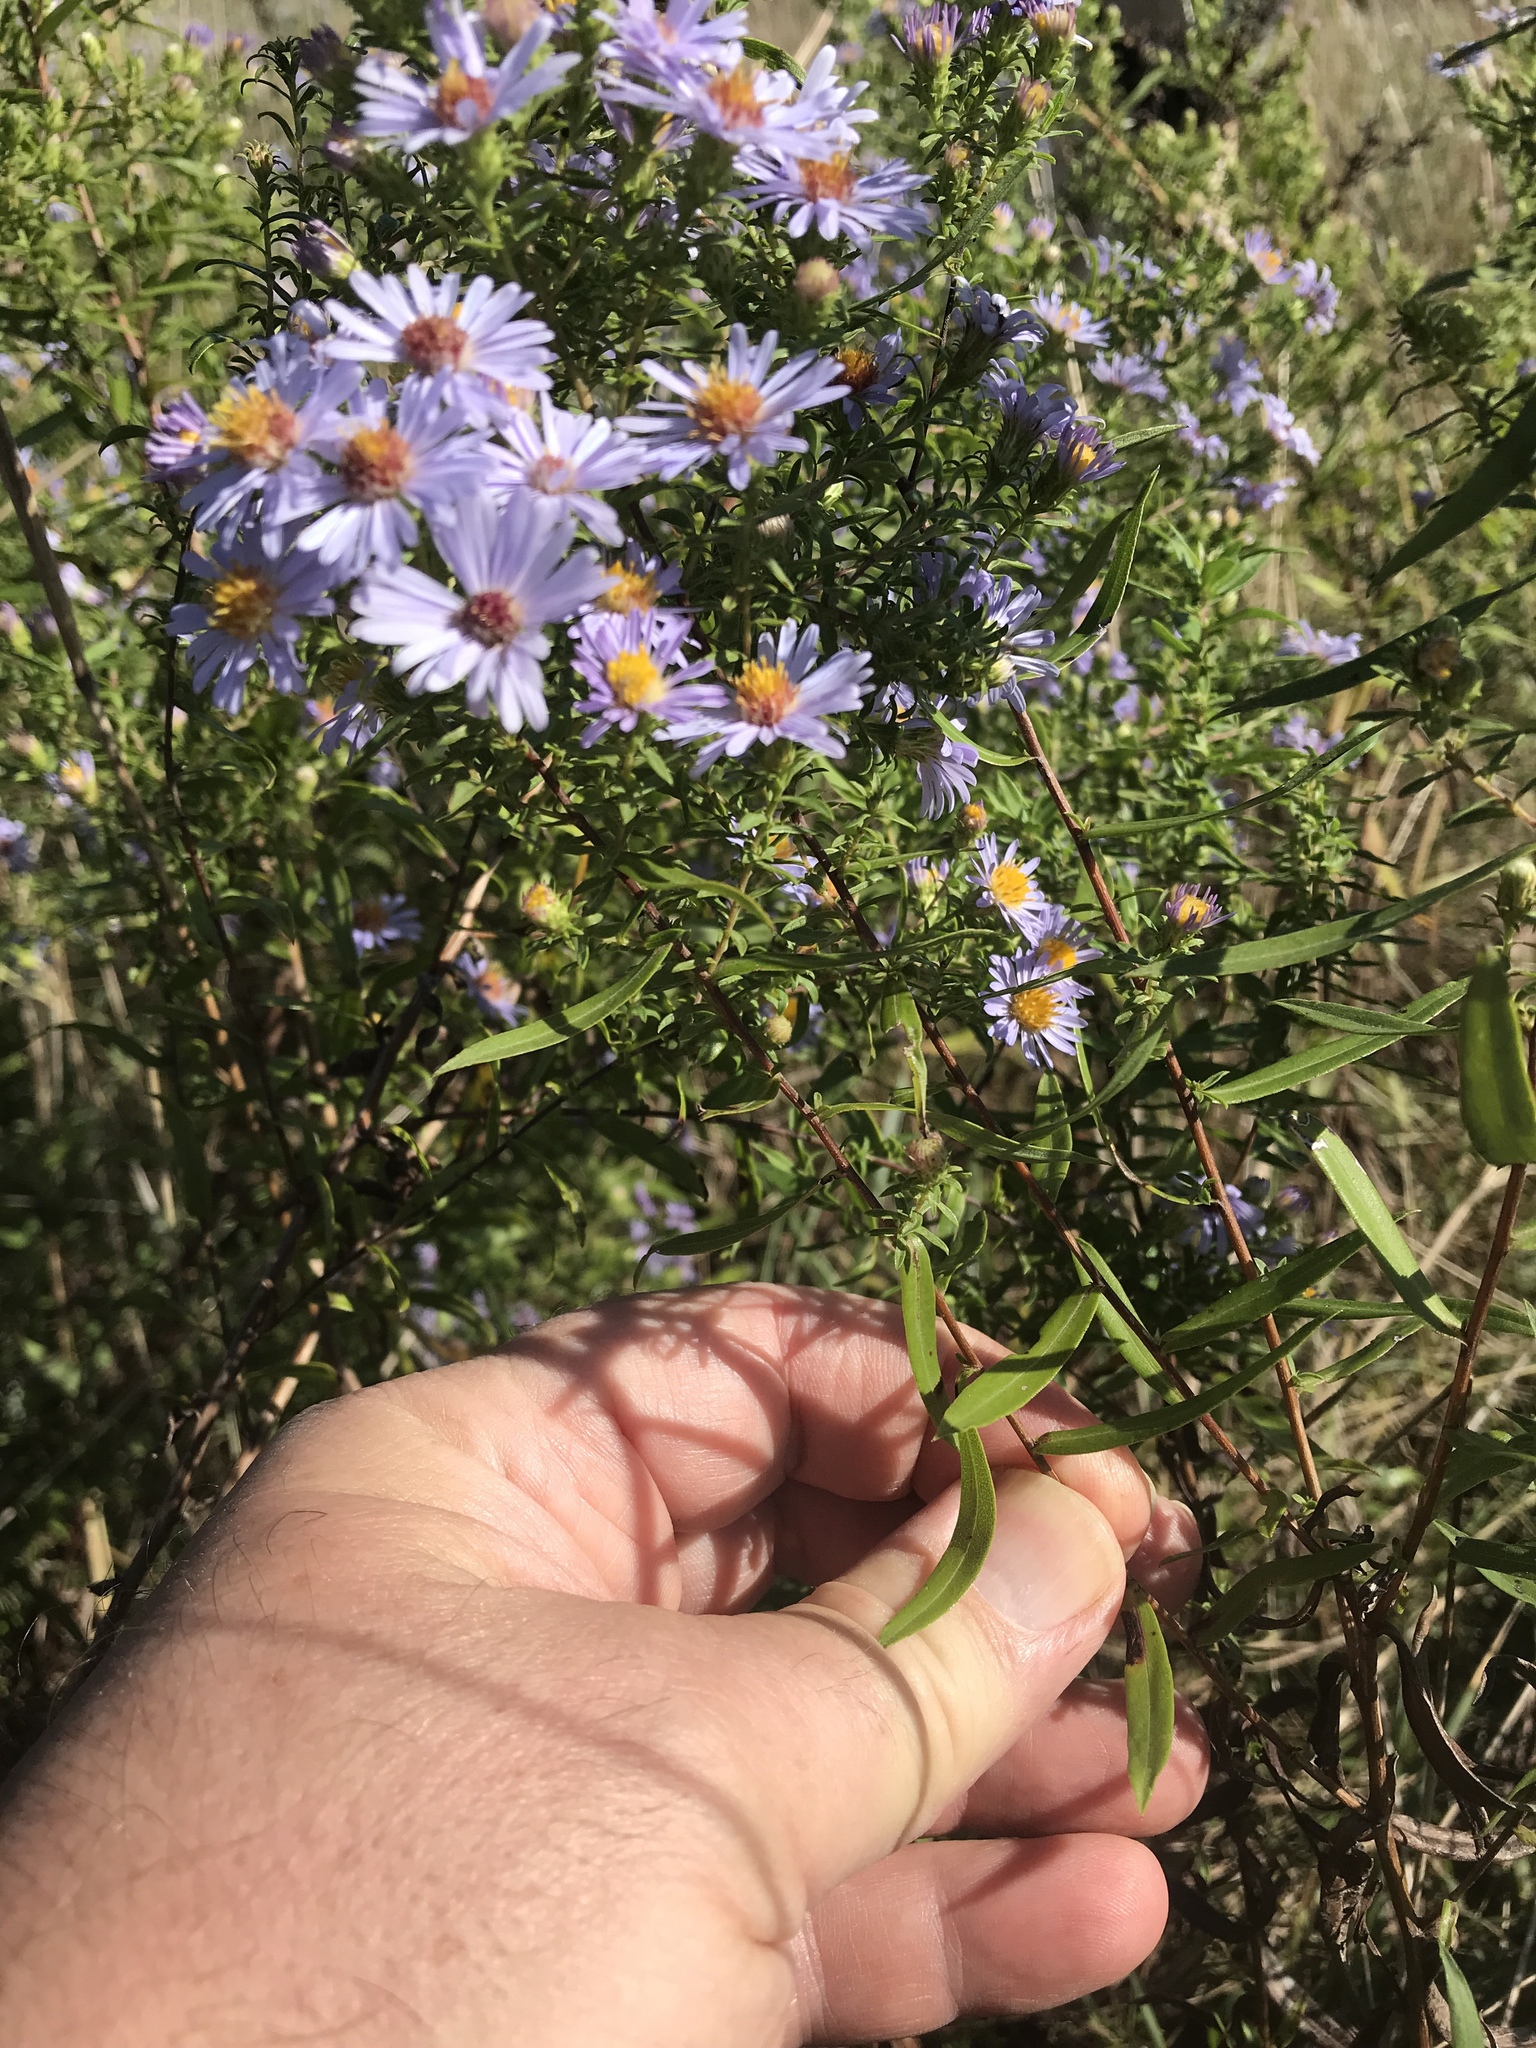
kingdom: Plantae
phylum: Tracheophyta
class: Magnoliopsida
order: Asterales
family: Asteraceae
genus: Symphyotrichum
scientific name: Symphyotrichum praealtum
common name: Willow aster
